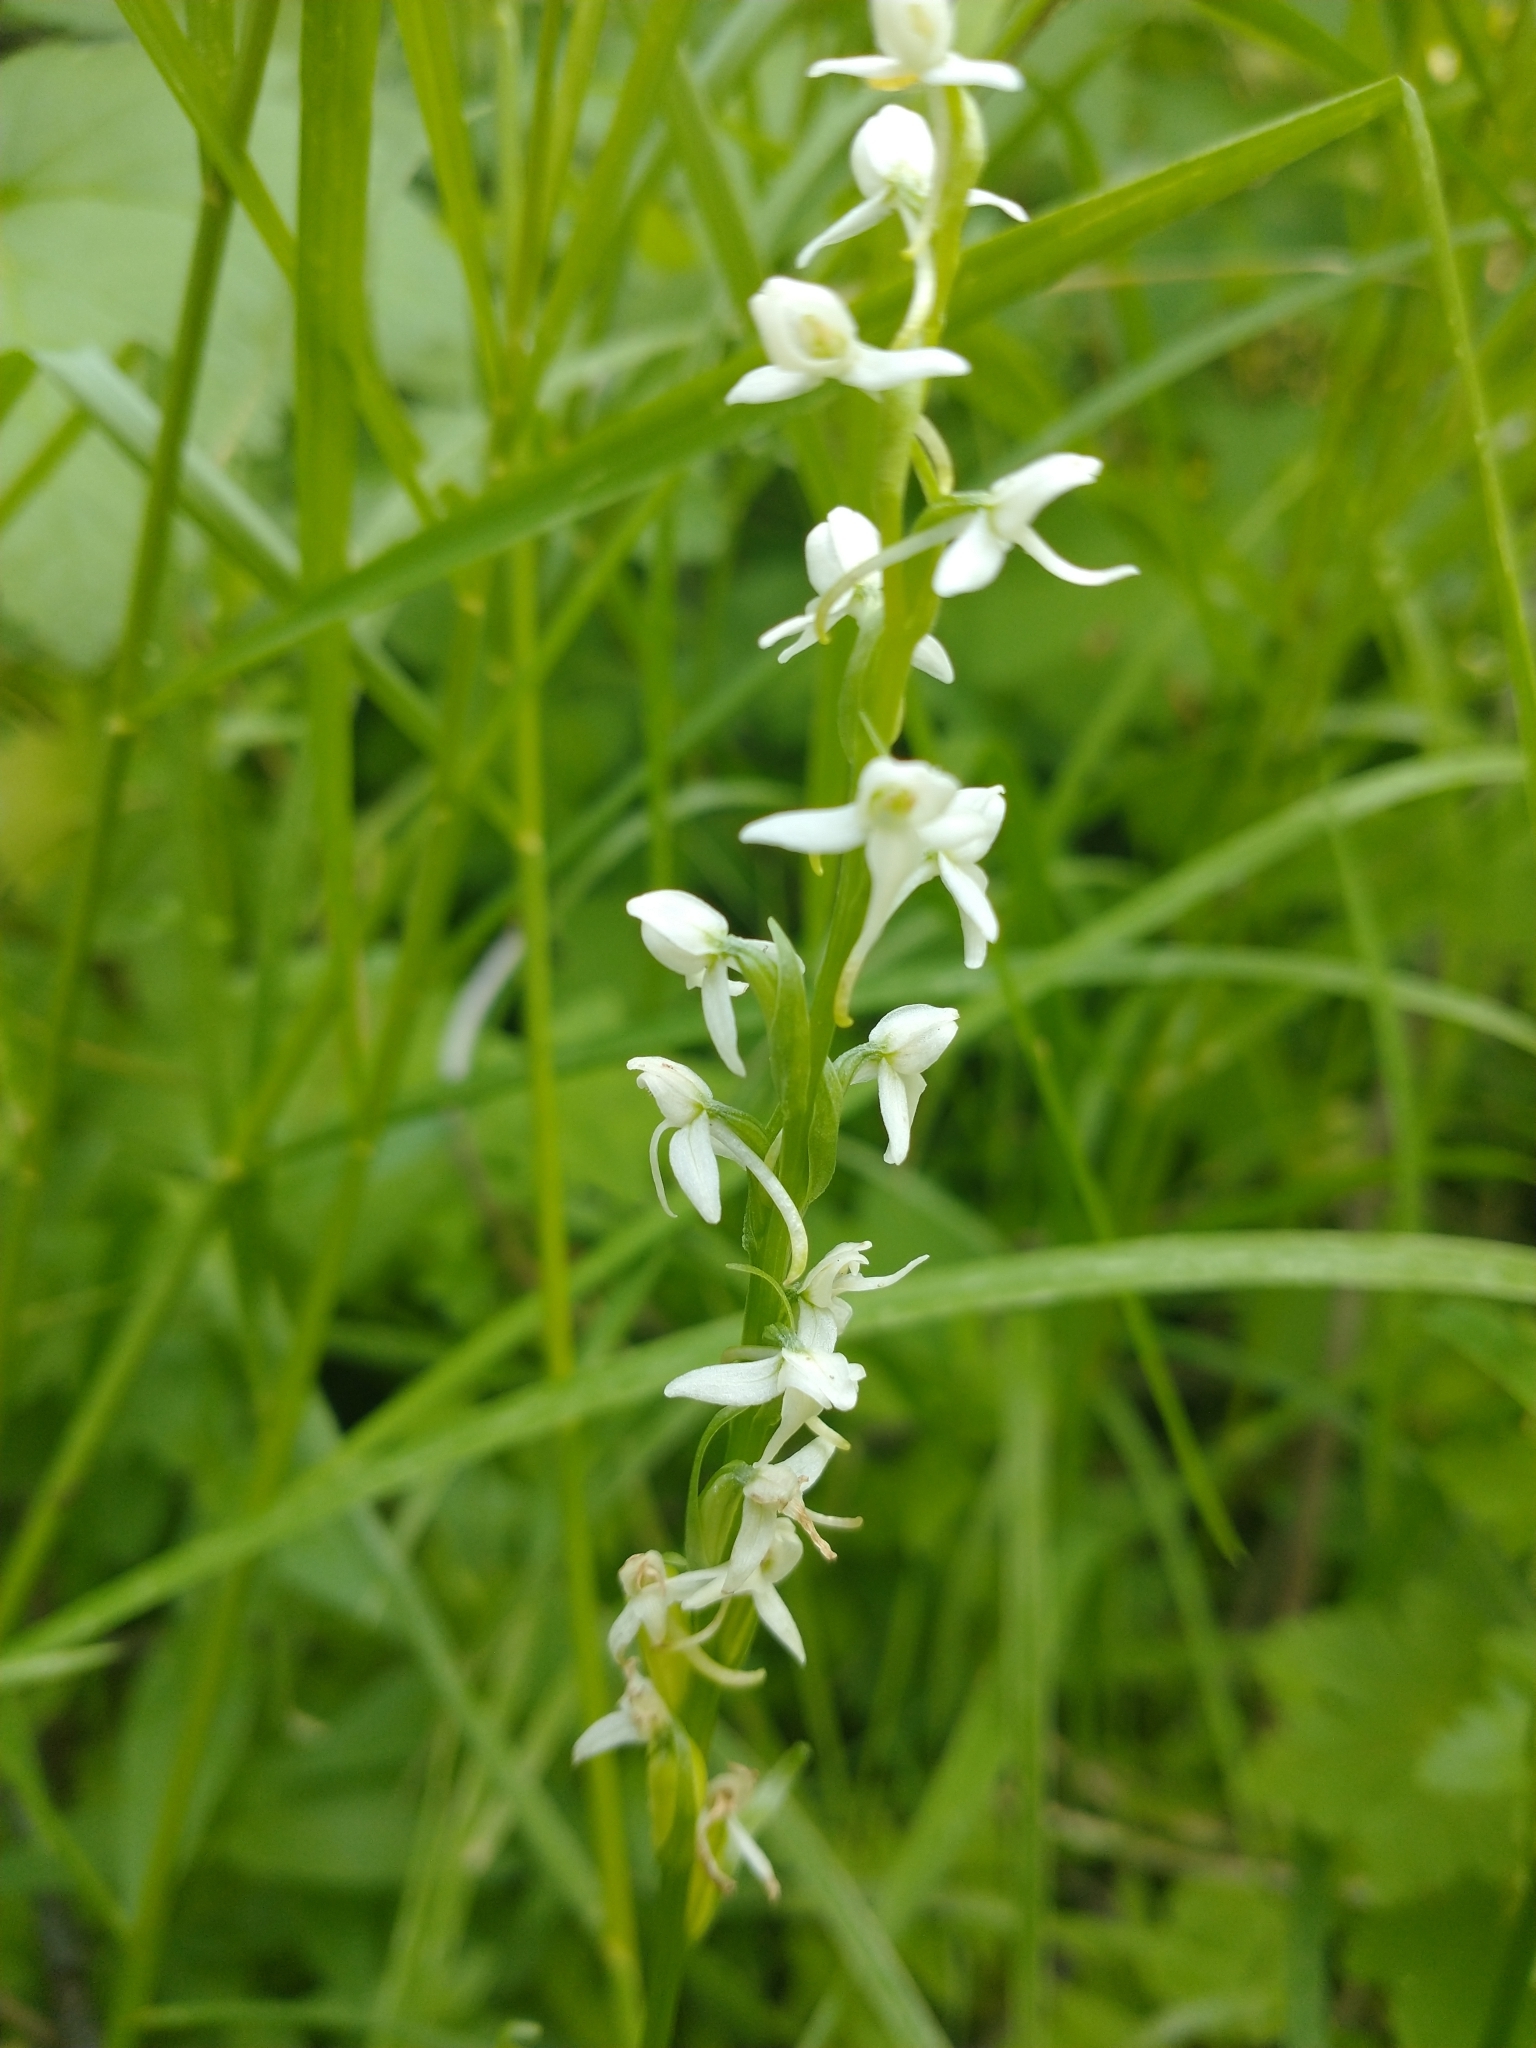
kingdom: Plantae
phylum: Tracheophyta
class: Liliopsida
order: Asparagales
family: Orchidaceae
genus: Platanthera
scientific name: Platanthera dilatata
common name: Bog candles
